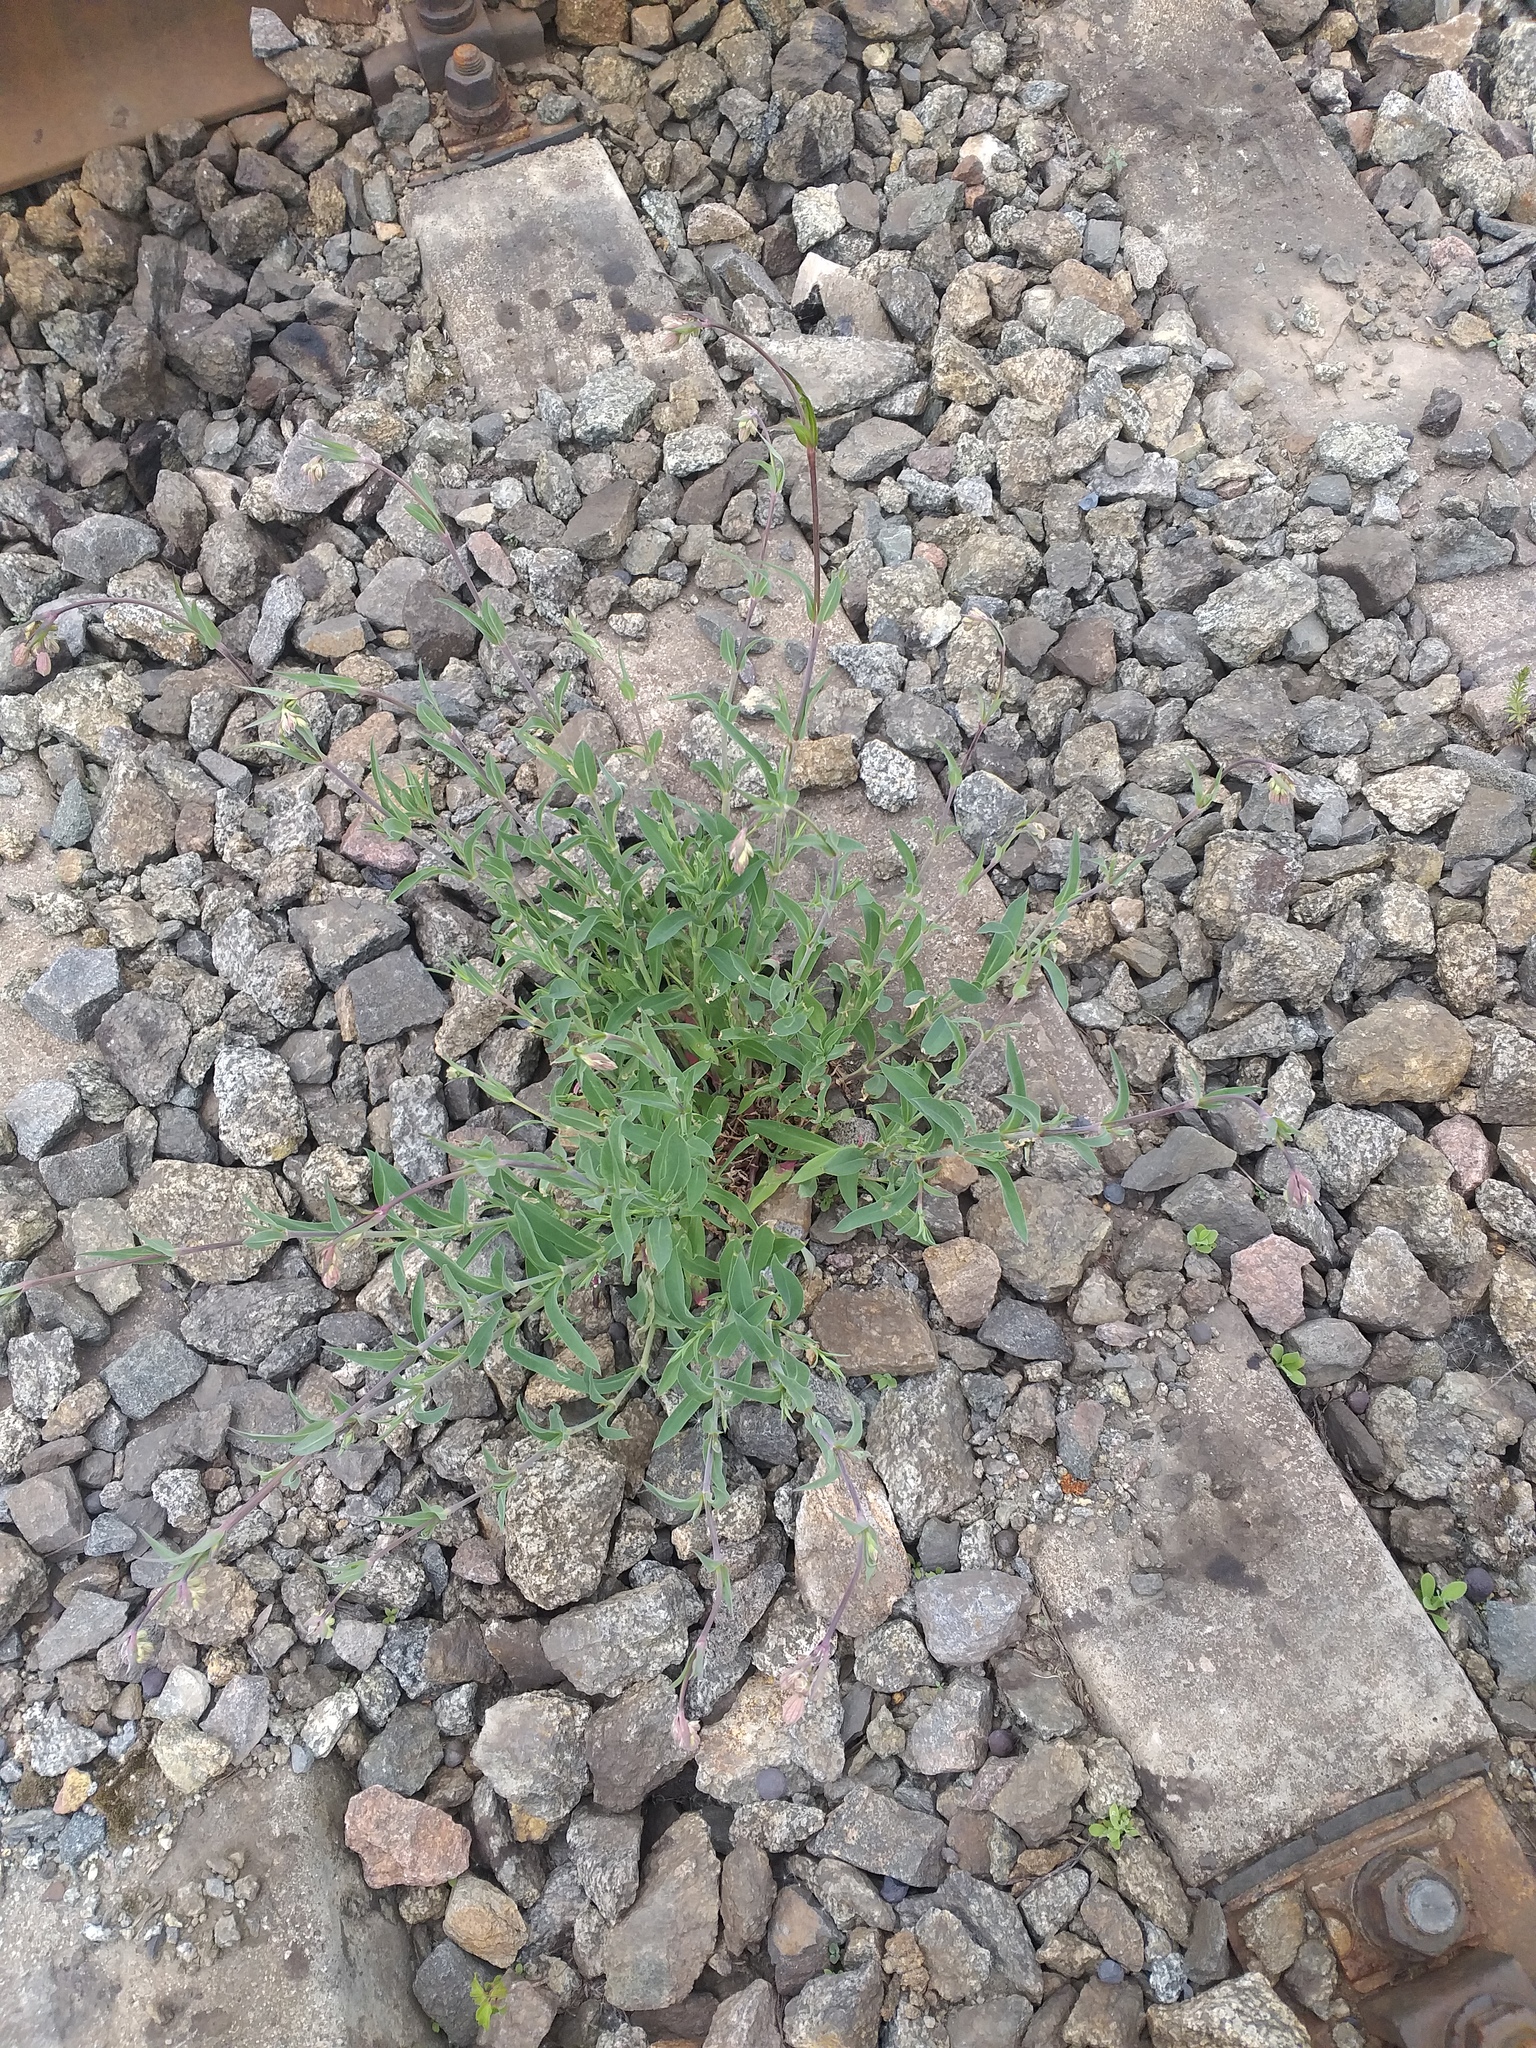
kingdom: Plantae
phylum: Tracheophyta
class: Magnoliopsida
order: Caryophyllales
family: Caryophyllaceae
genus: Silene
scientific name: Silene vulgaris
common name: Bladder campion
